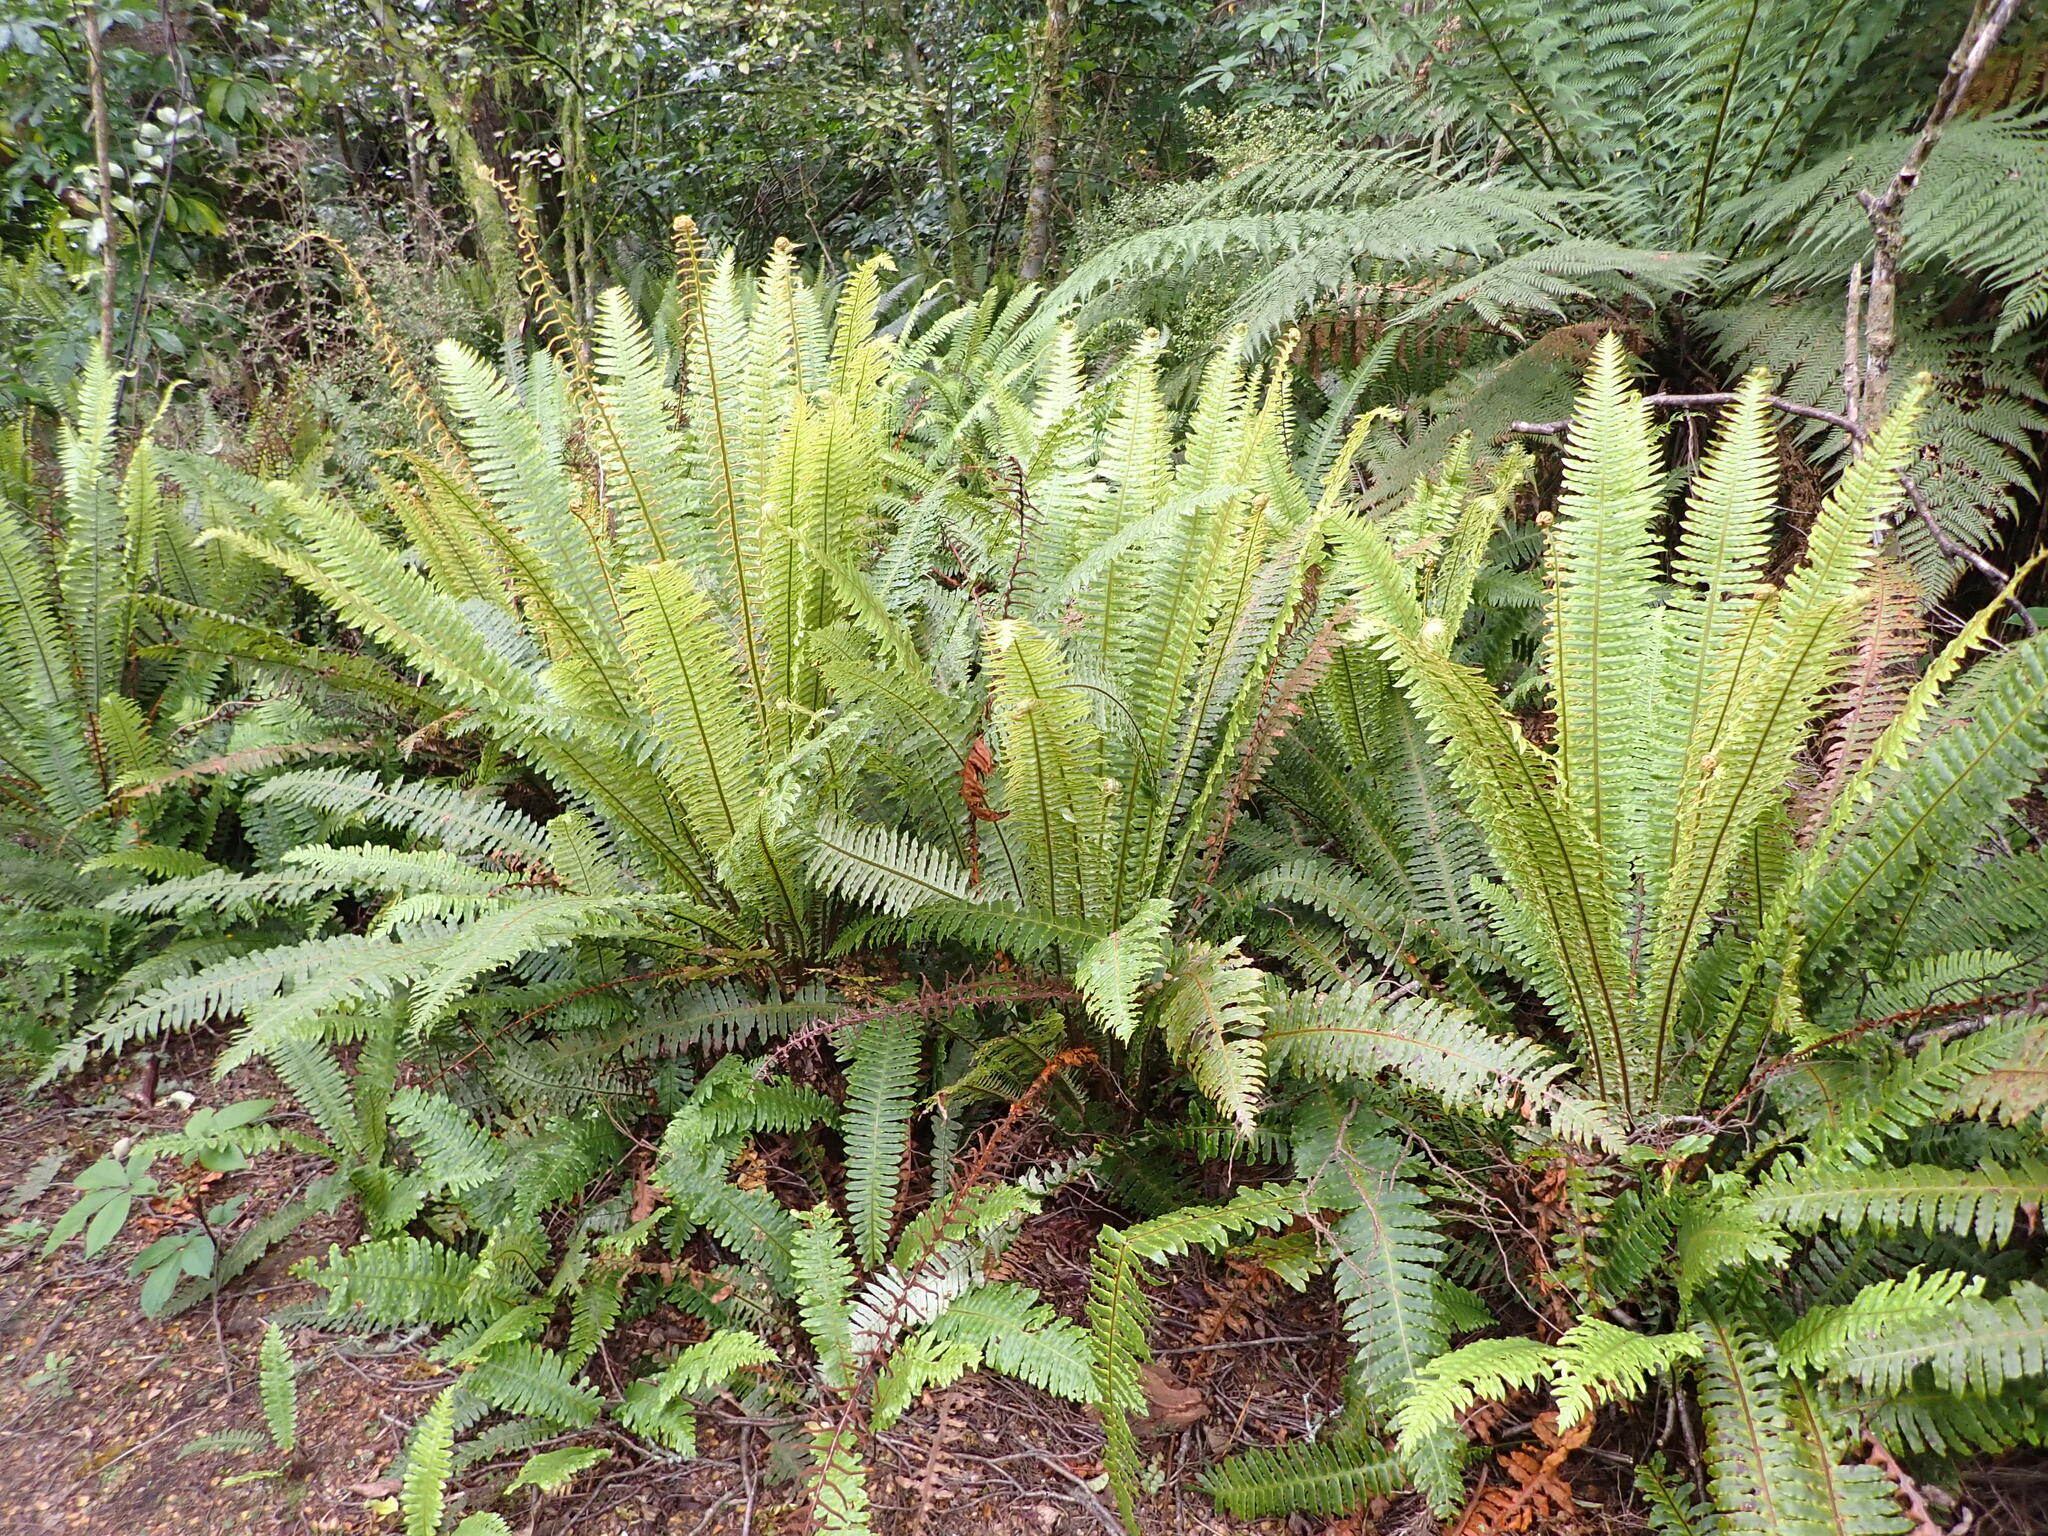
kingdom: Plantae
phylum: Tracheophyta
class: Polypodiopsida
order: Polypodiales
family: Blechnaceae
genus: Lomaria
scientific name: Lomaria discolor
